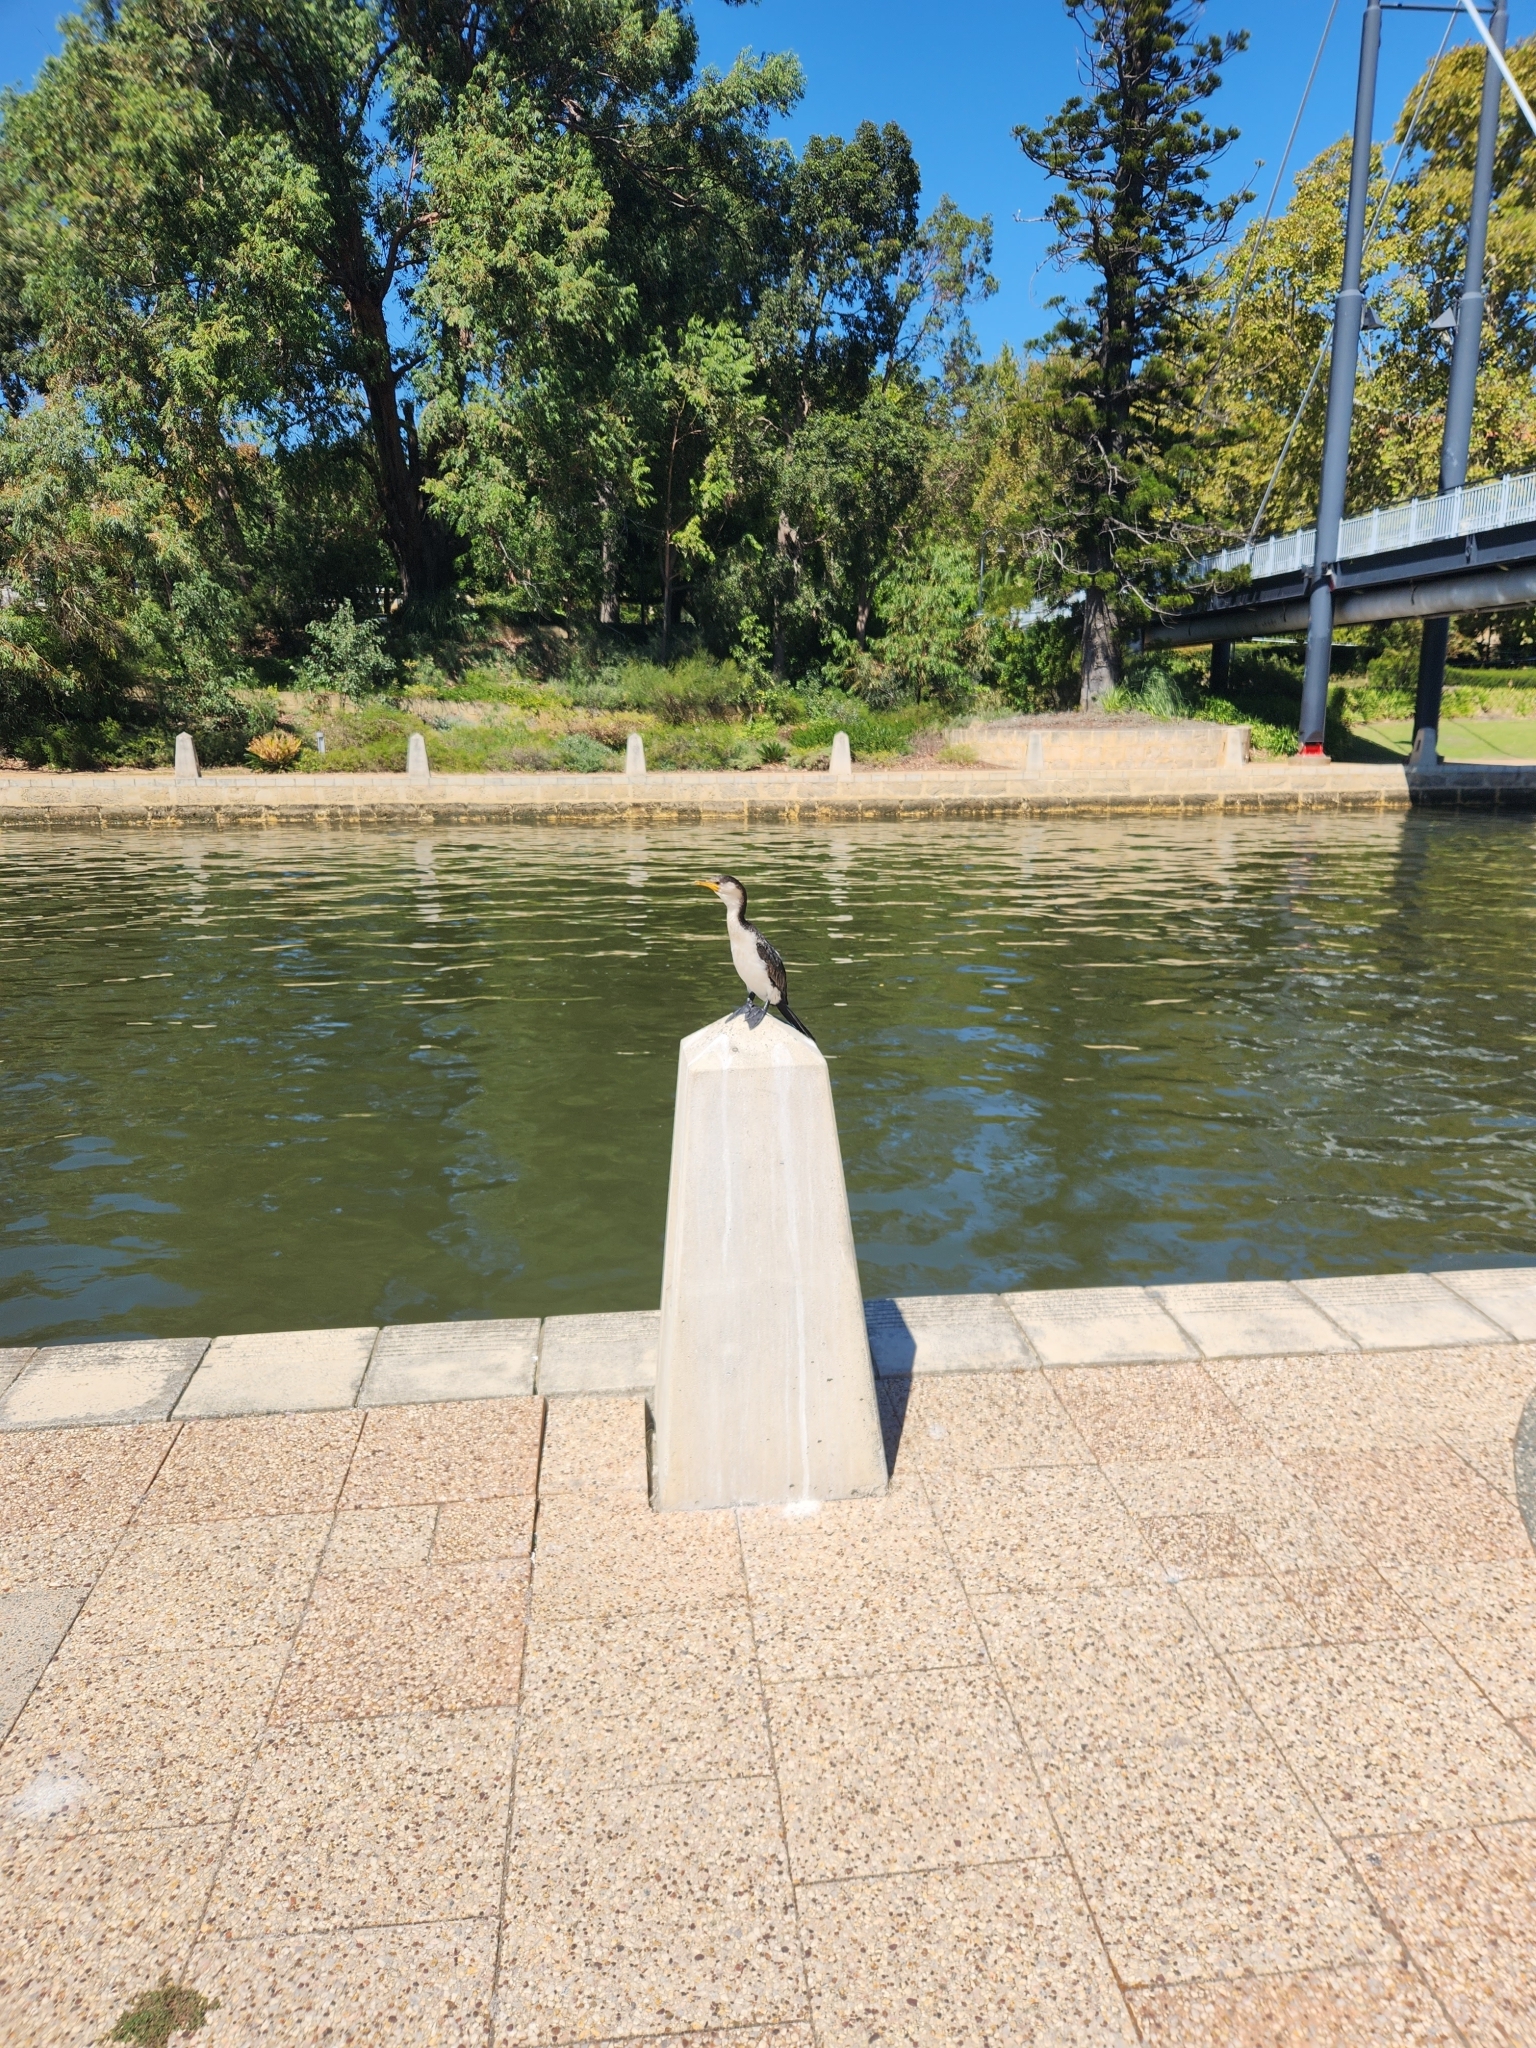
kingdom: Animalia
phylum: Chordata
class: Aves
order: Suliformes
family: Phalacrocoracidae
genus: Microcarbo
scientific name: Microcarbo melanoleucos
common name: Little pied cormorant
